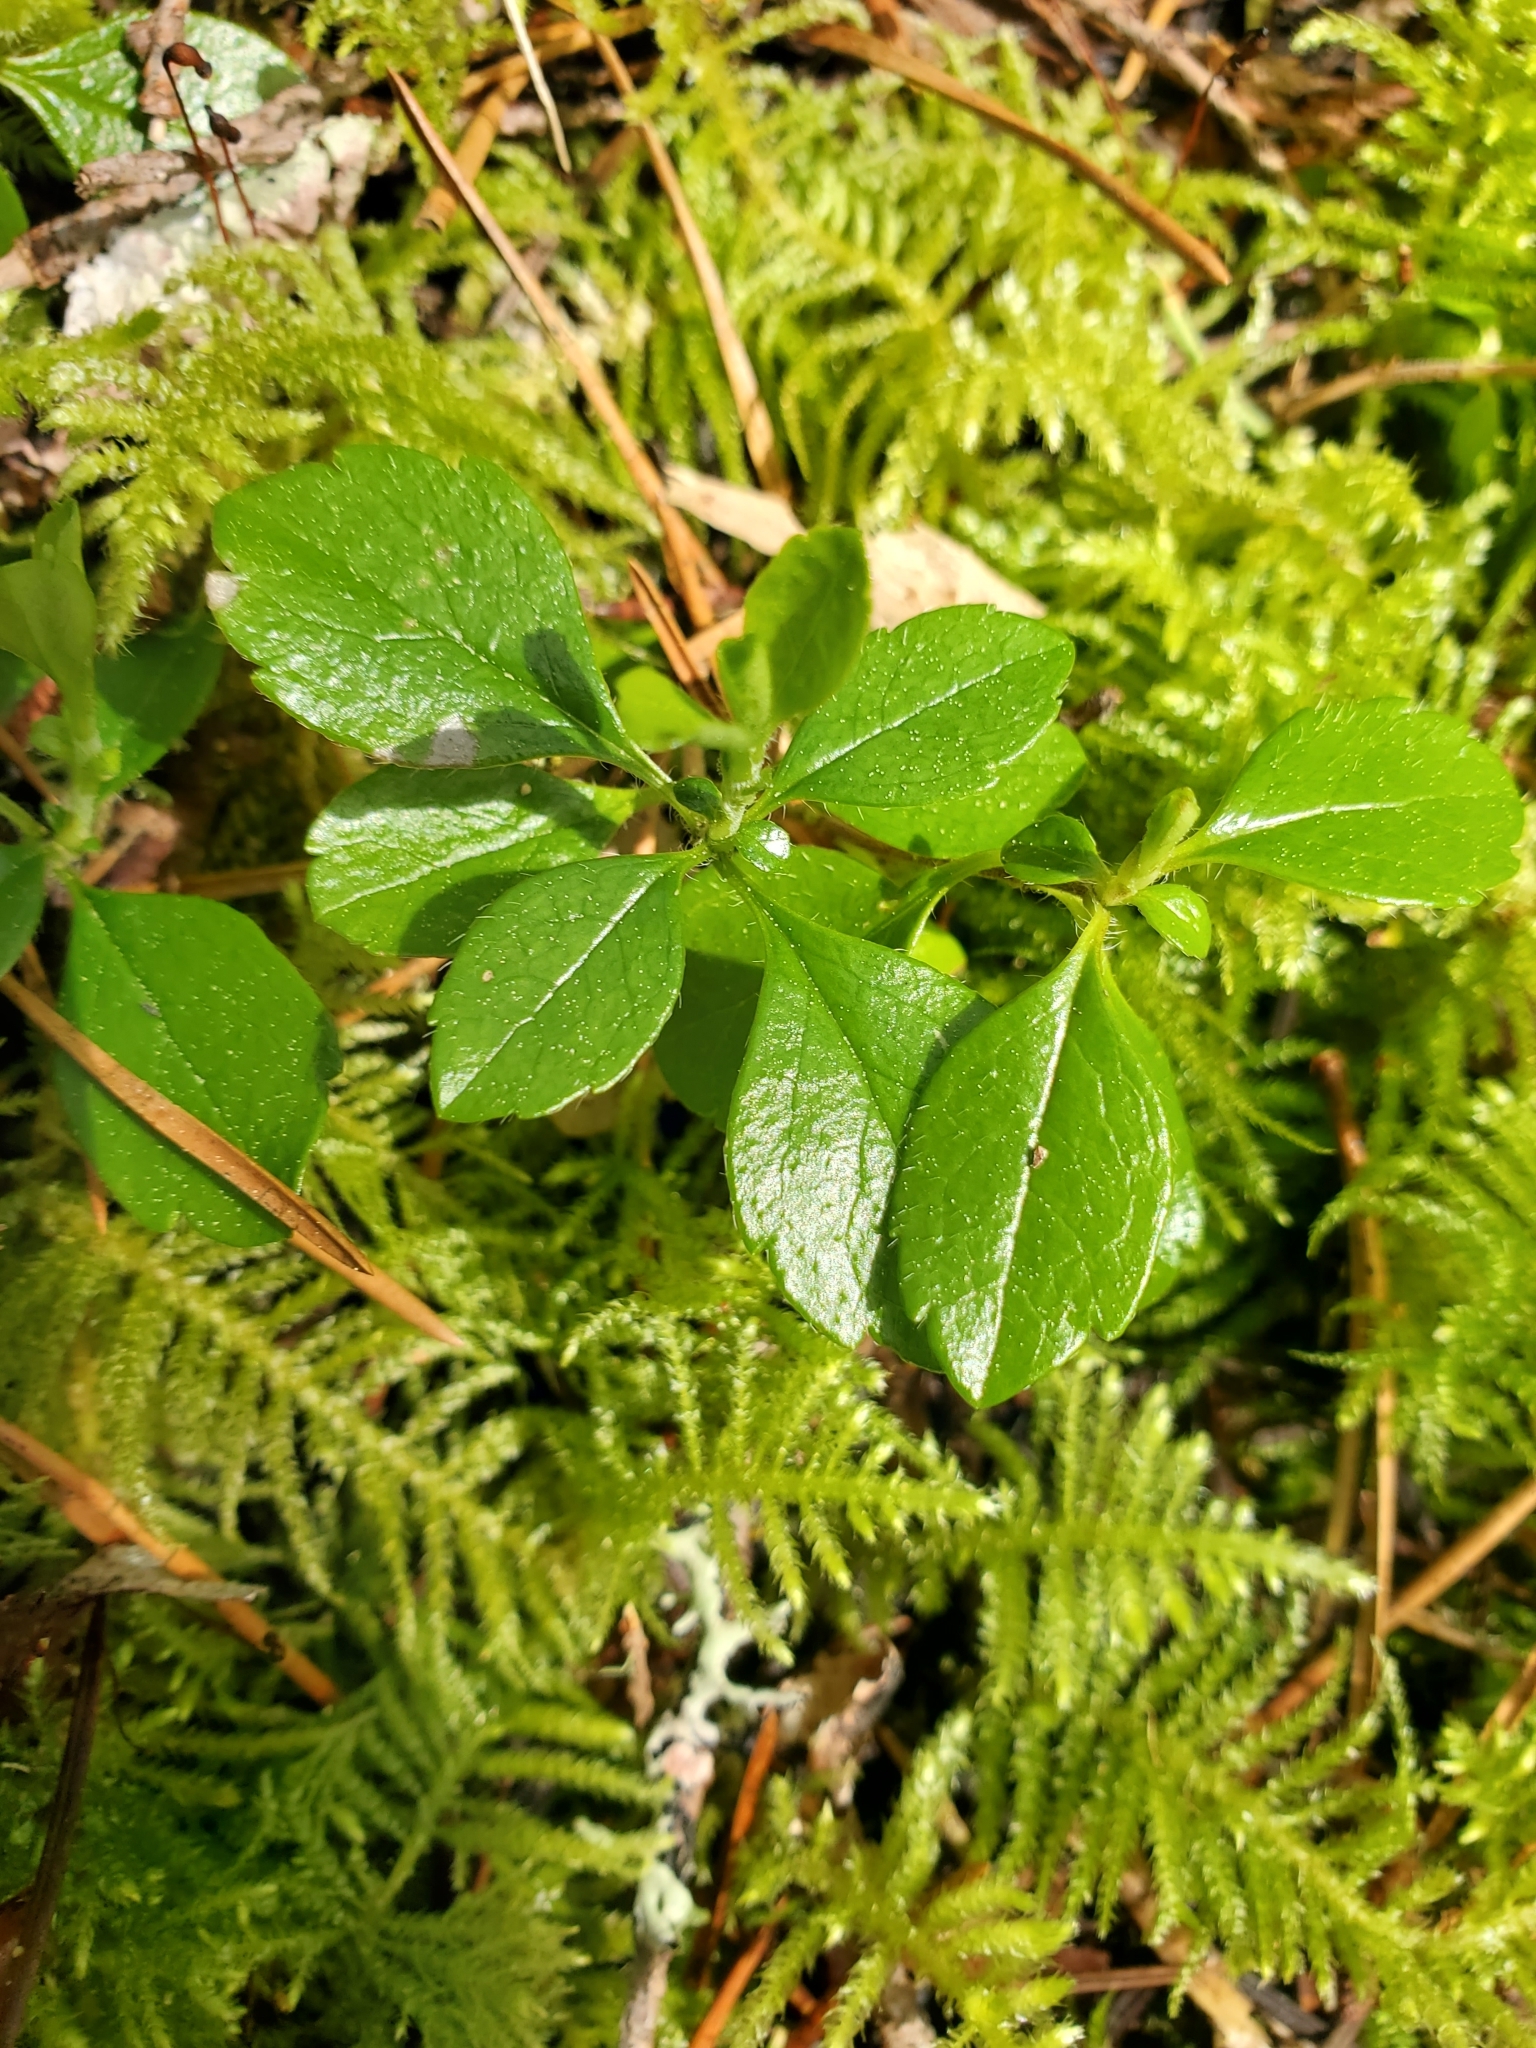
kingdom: Plantae
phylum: Tracheophyta
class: Magnoliopsida
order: Dipsacales
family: Caprifoliaceae
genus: Linnaea
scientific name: Linnaea borealis
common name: Twinflower
